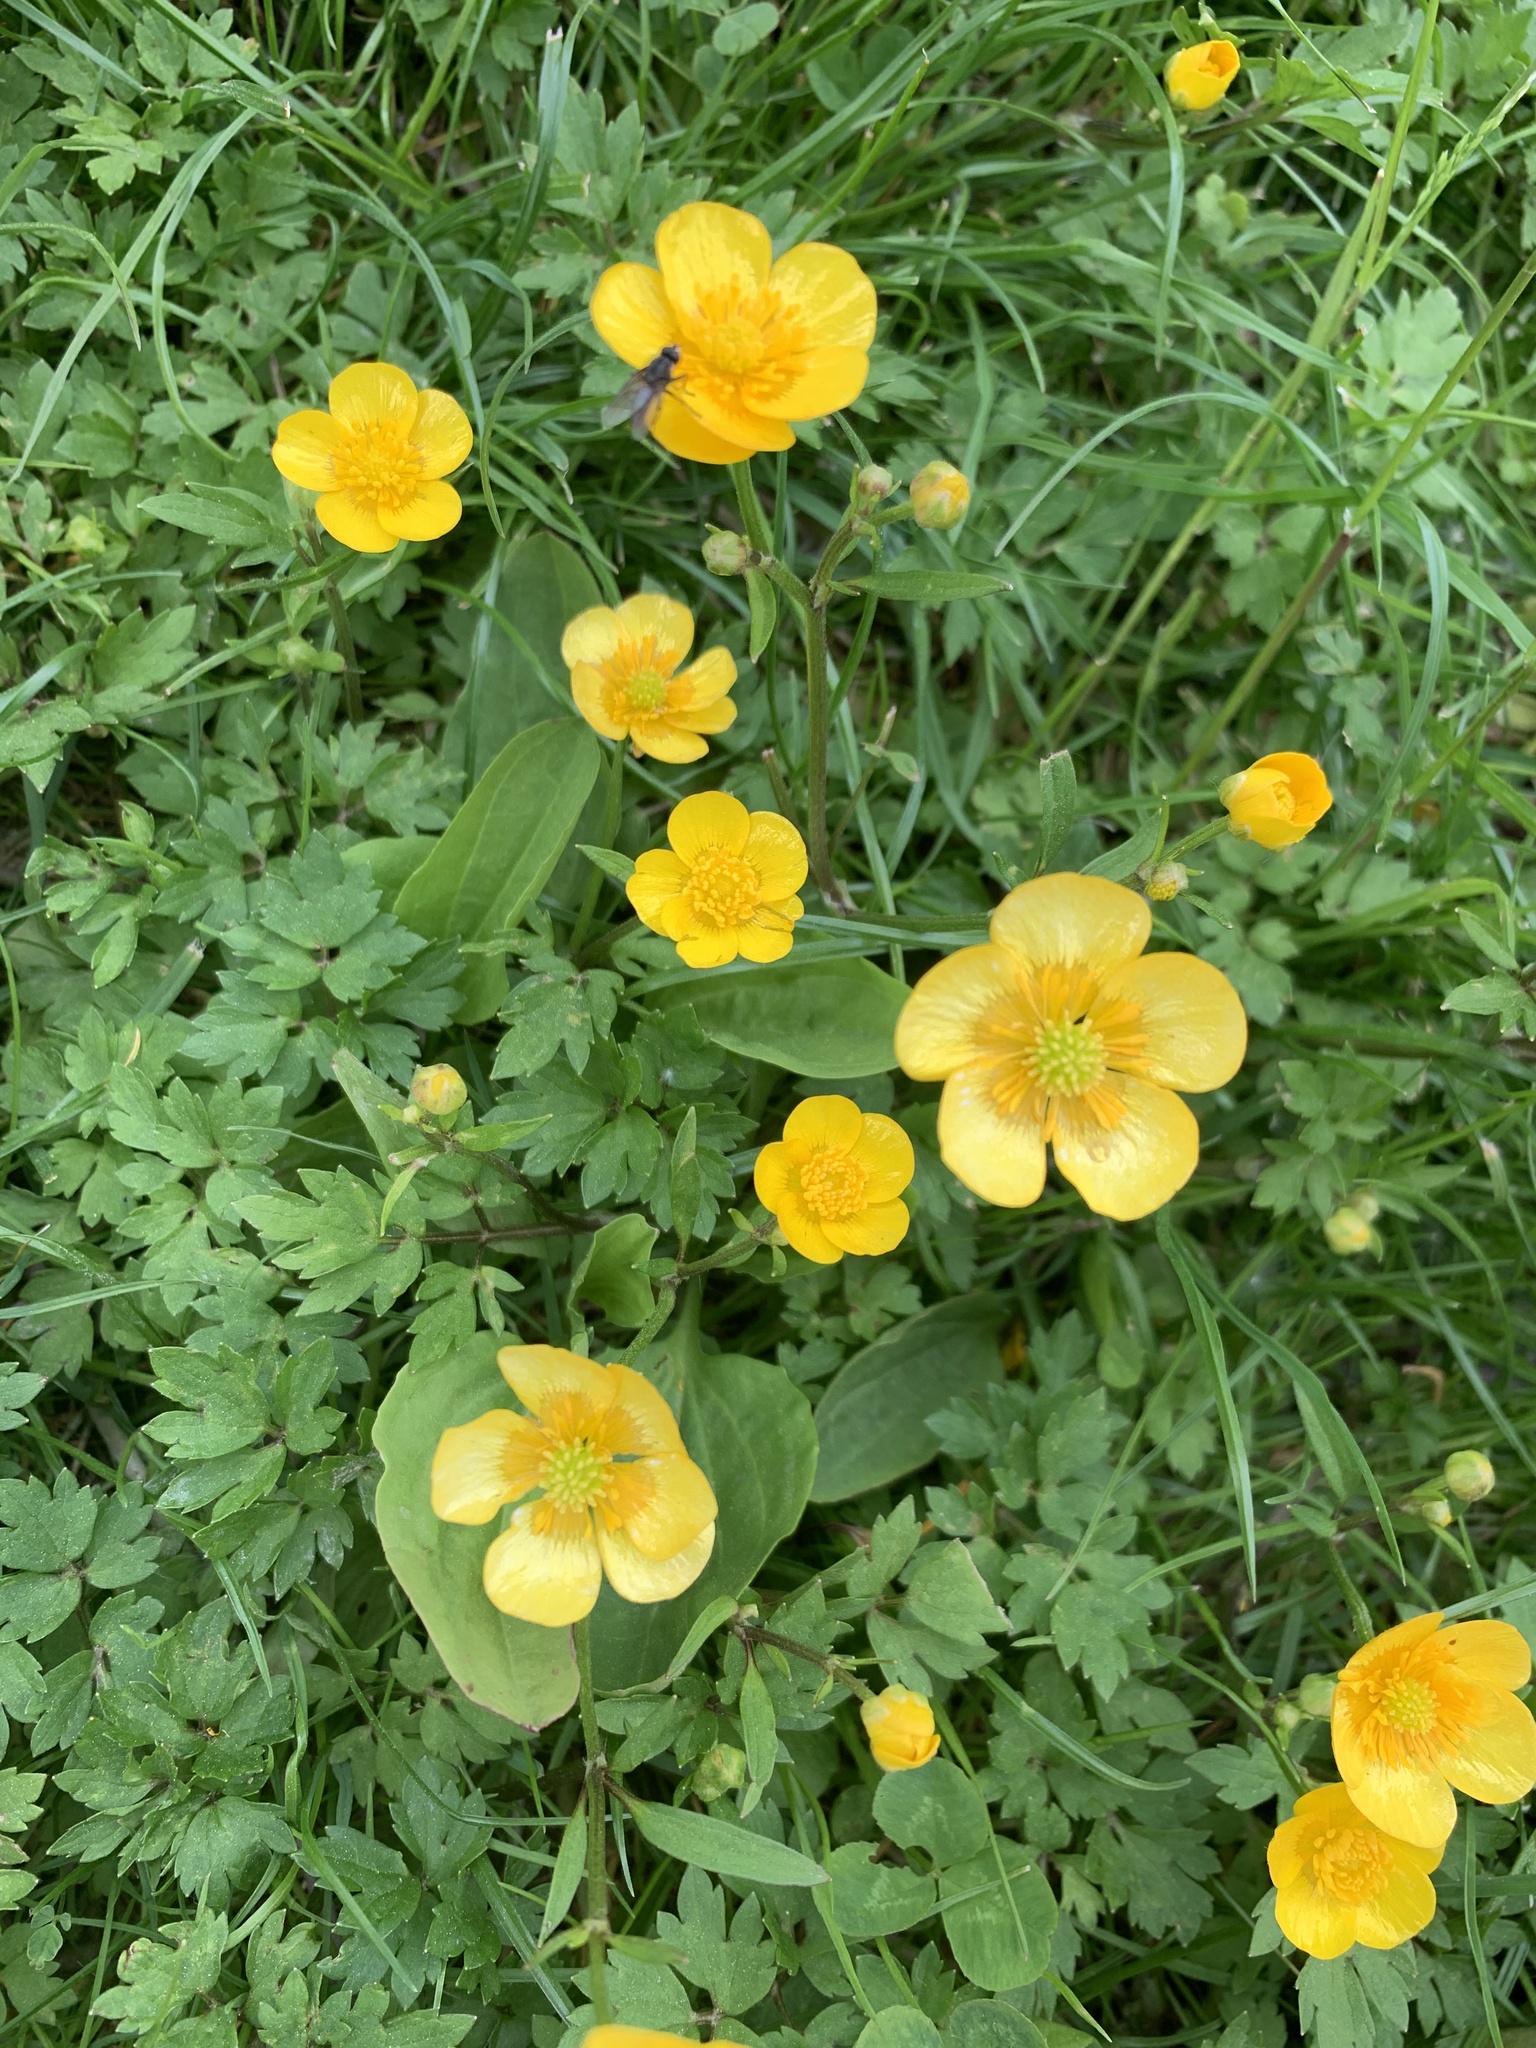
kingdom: Plantae
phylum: Tracheophyta
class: Magnoliopsida
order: Ranunculales
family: Ranunculaceae
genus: Ranunculus
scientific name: Ranunculus repens
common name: Creeping buttercup
